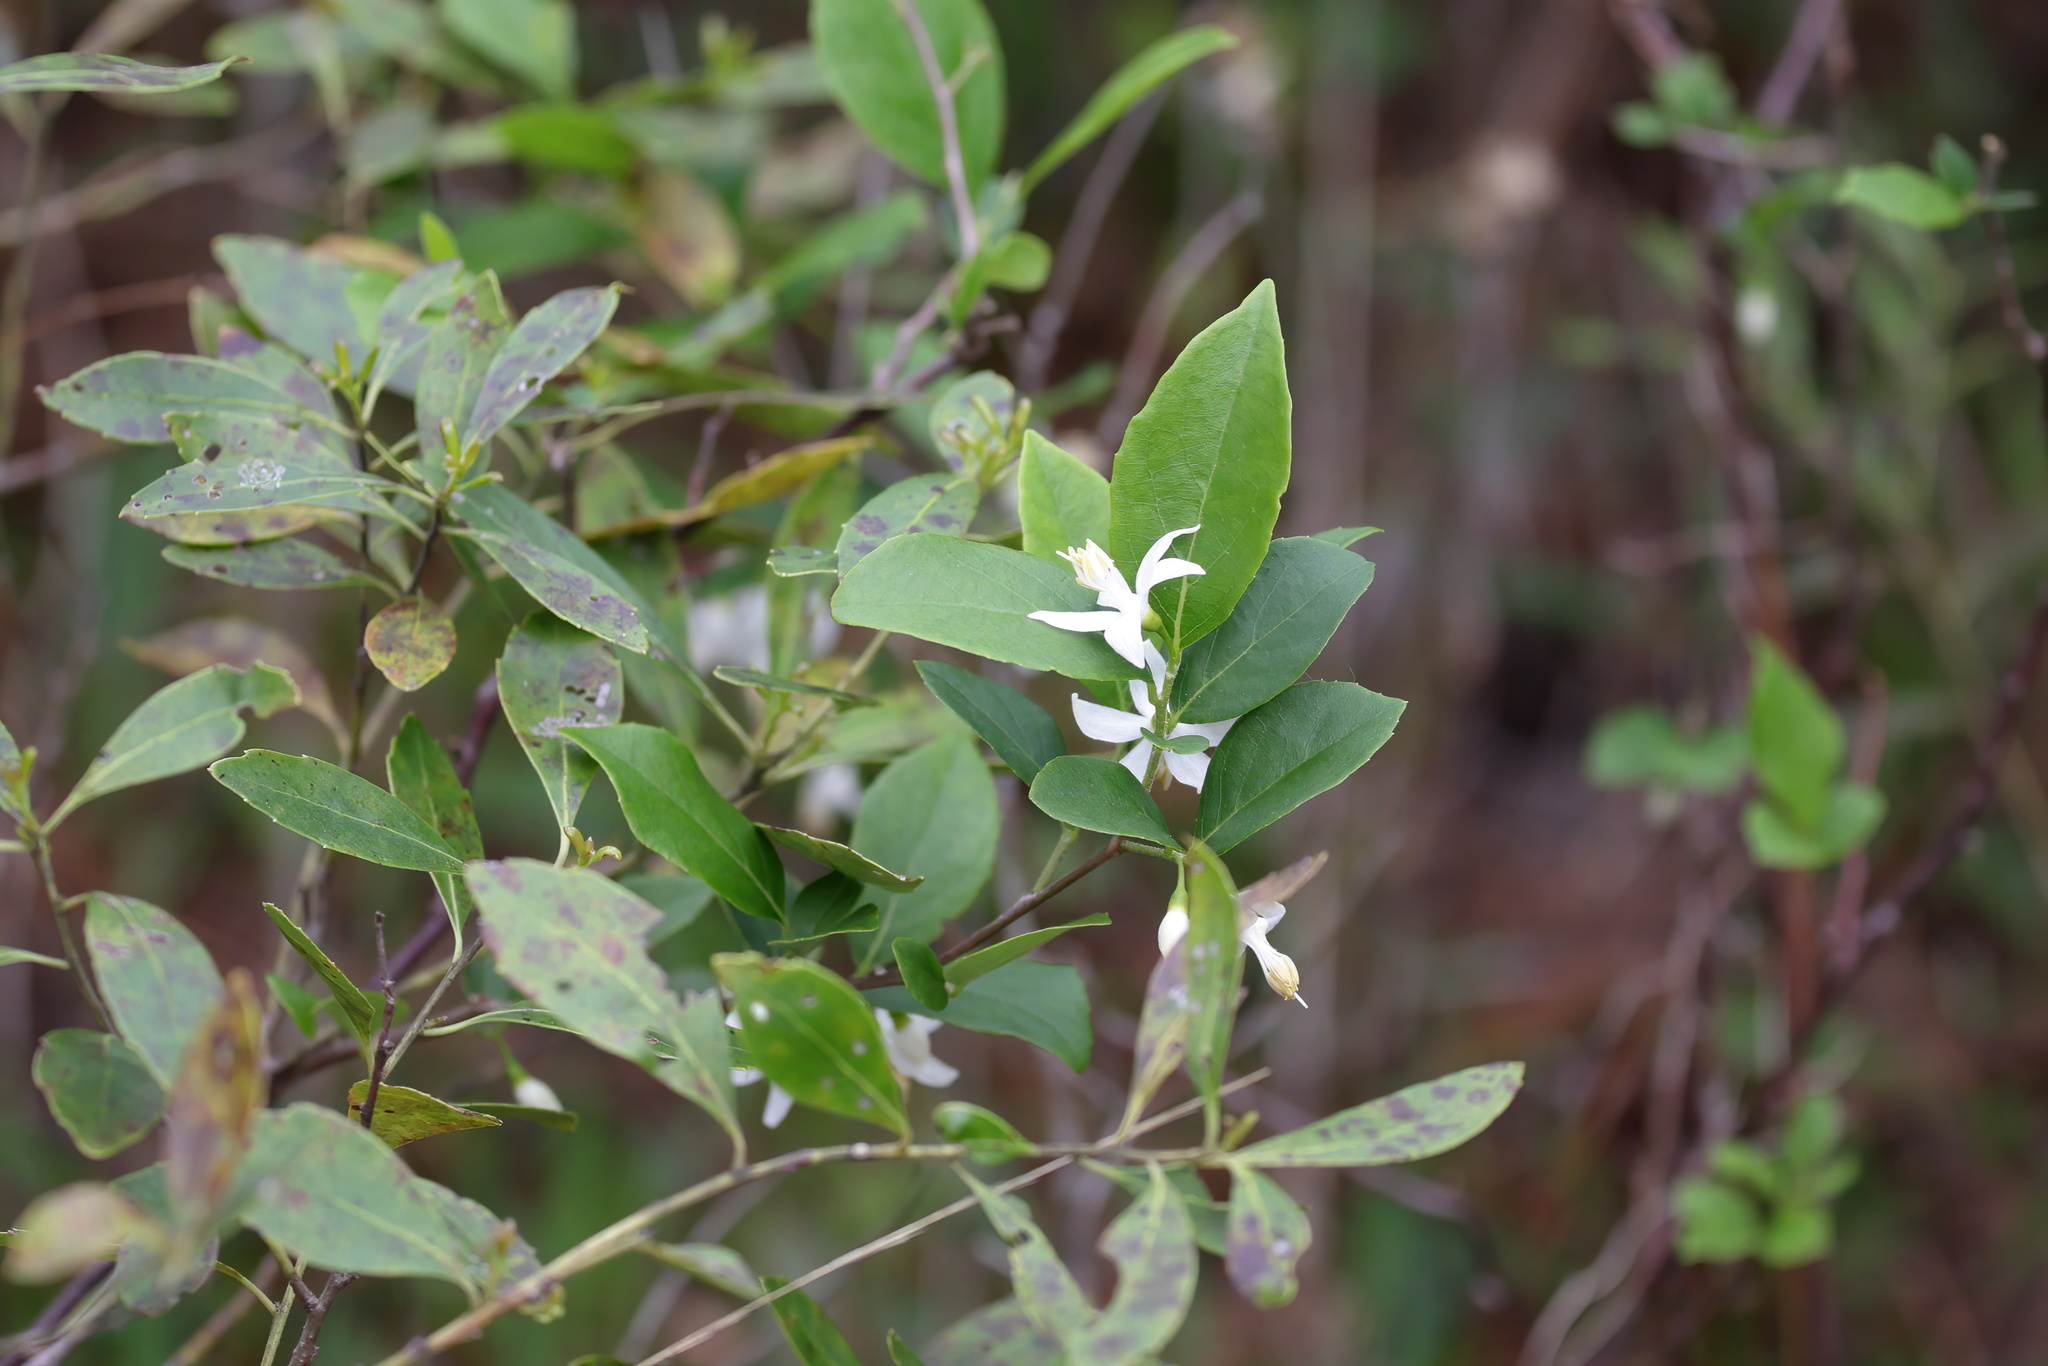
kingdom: Plantae
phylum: Tracheophyta
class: Magnoliopsida
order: Ericales
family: Styracaceae
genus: Styrax
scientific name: Styrax americanus
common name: American snowbell
